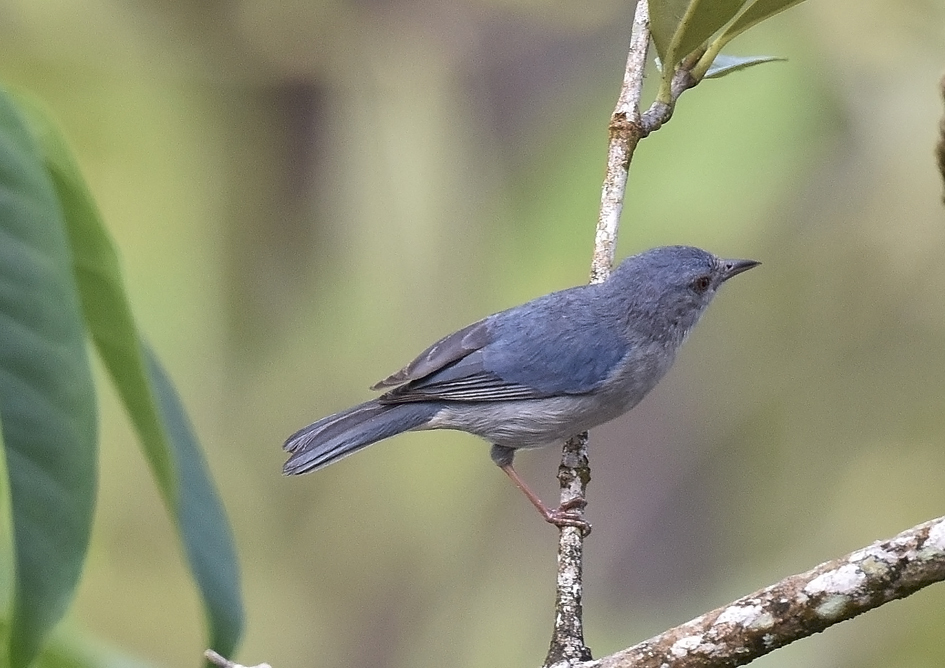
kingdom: Animalia
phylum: Chordata
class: Aves
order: Passeriformes
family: Thraupidae
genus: Conirostrum
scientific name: Conirostrum bicolor
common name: Bicolored conebill
